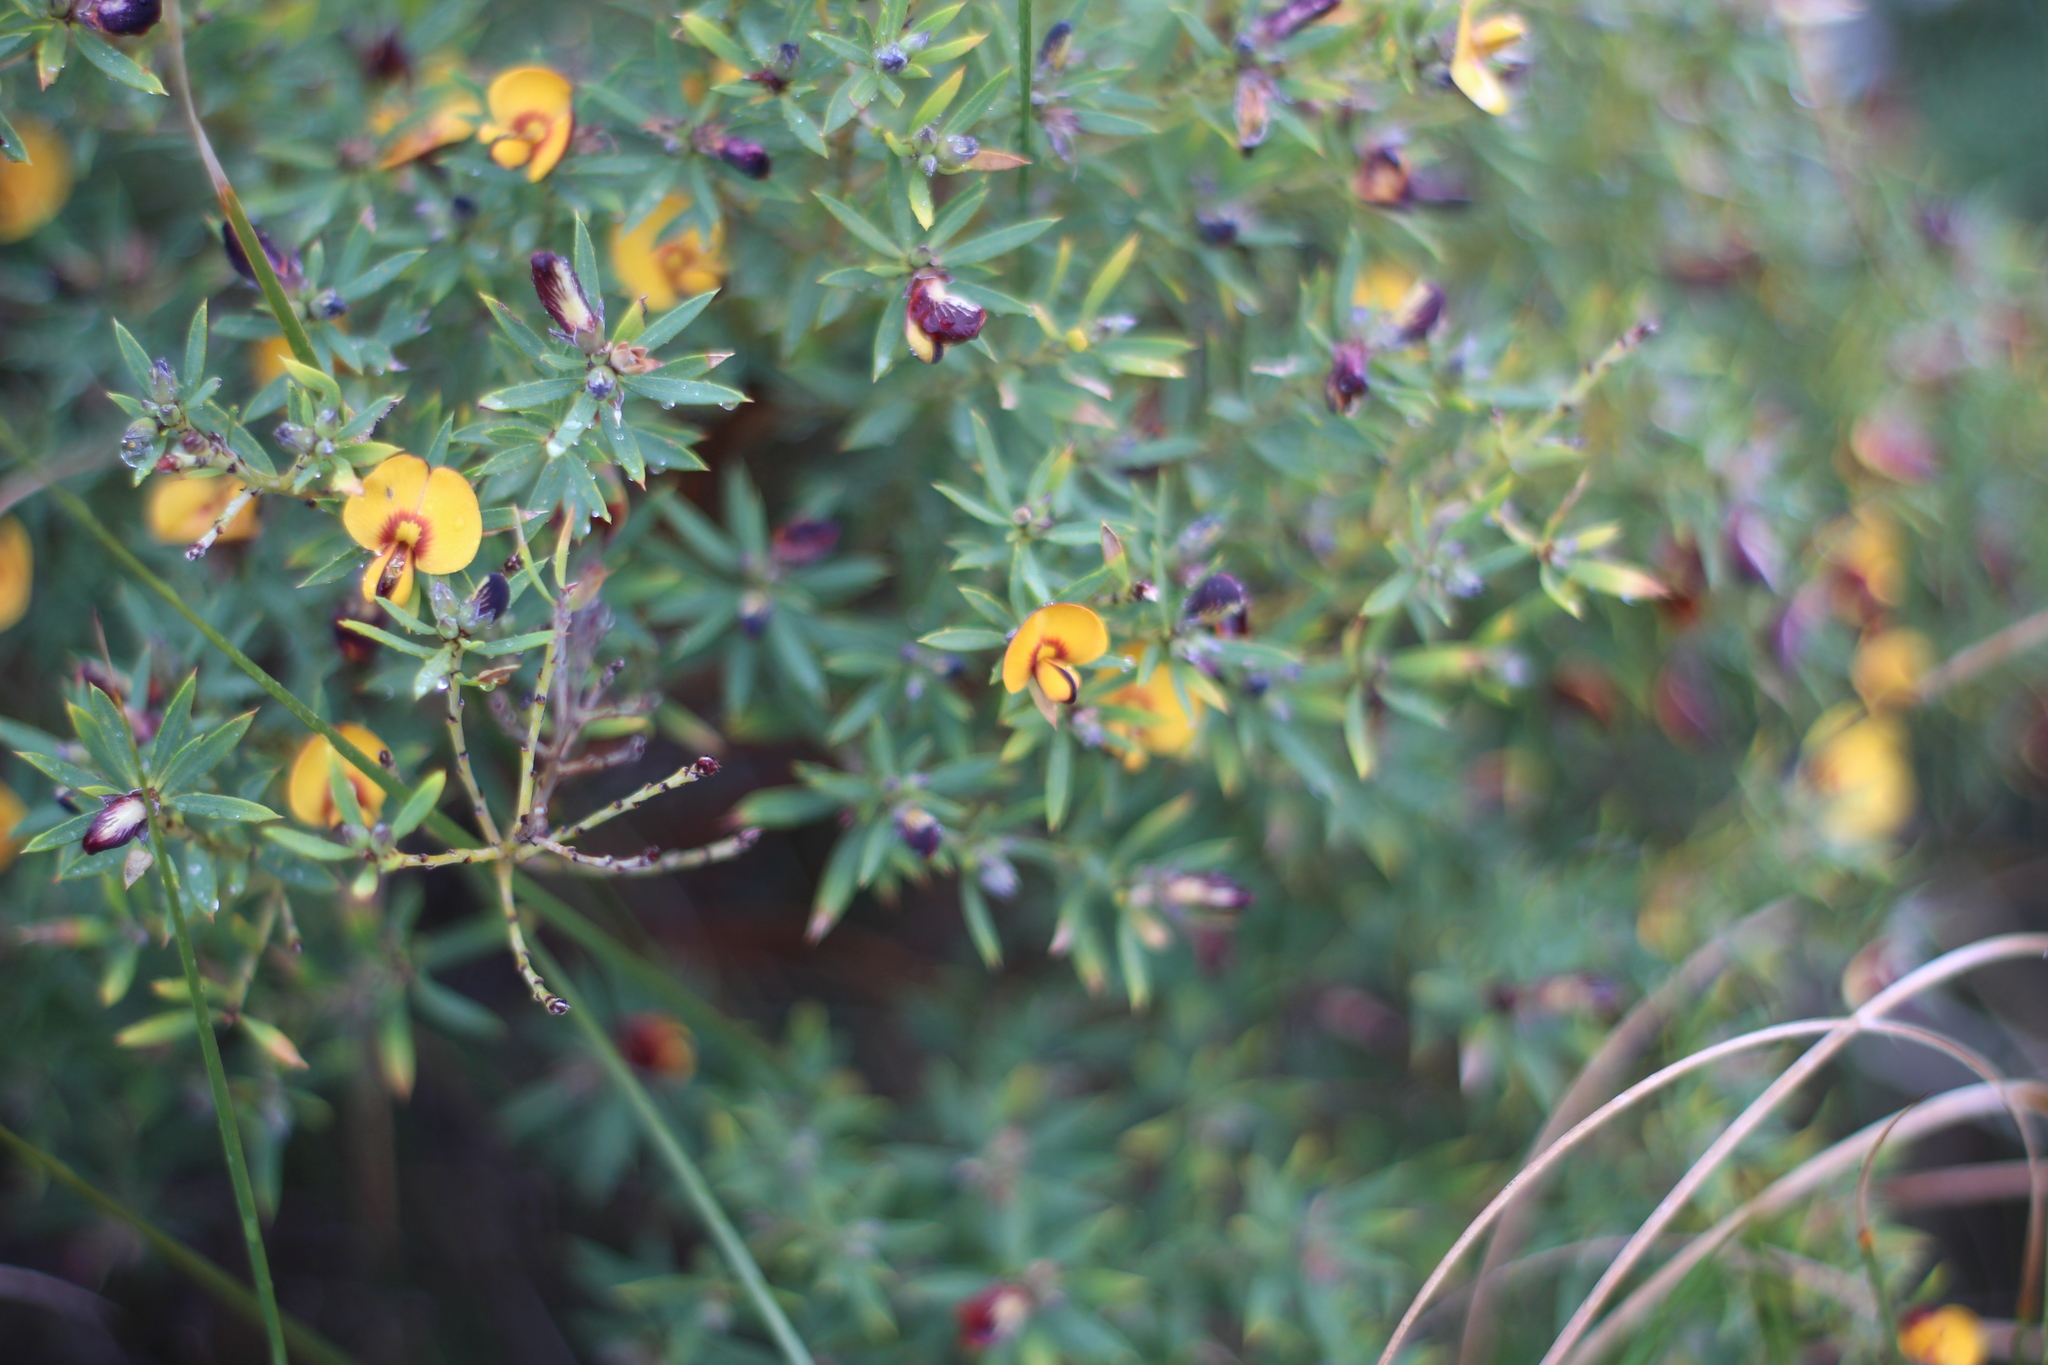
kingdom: Plantae
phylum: Tracheophyta
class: Magnoliopsida
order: Fabales
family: Fabaceae
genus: Pultenaea
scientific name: Pultenaea reticulata
